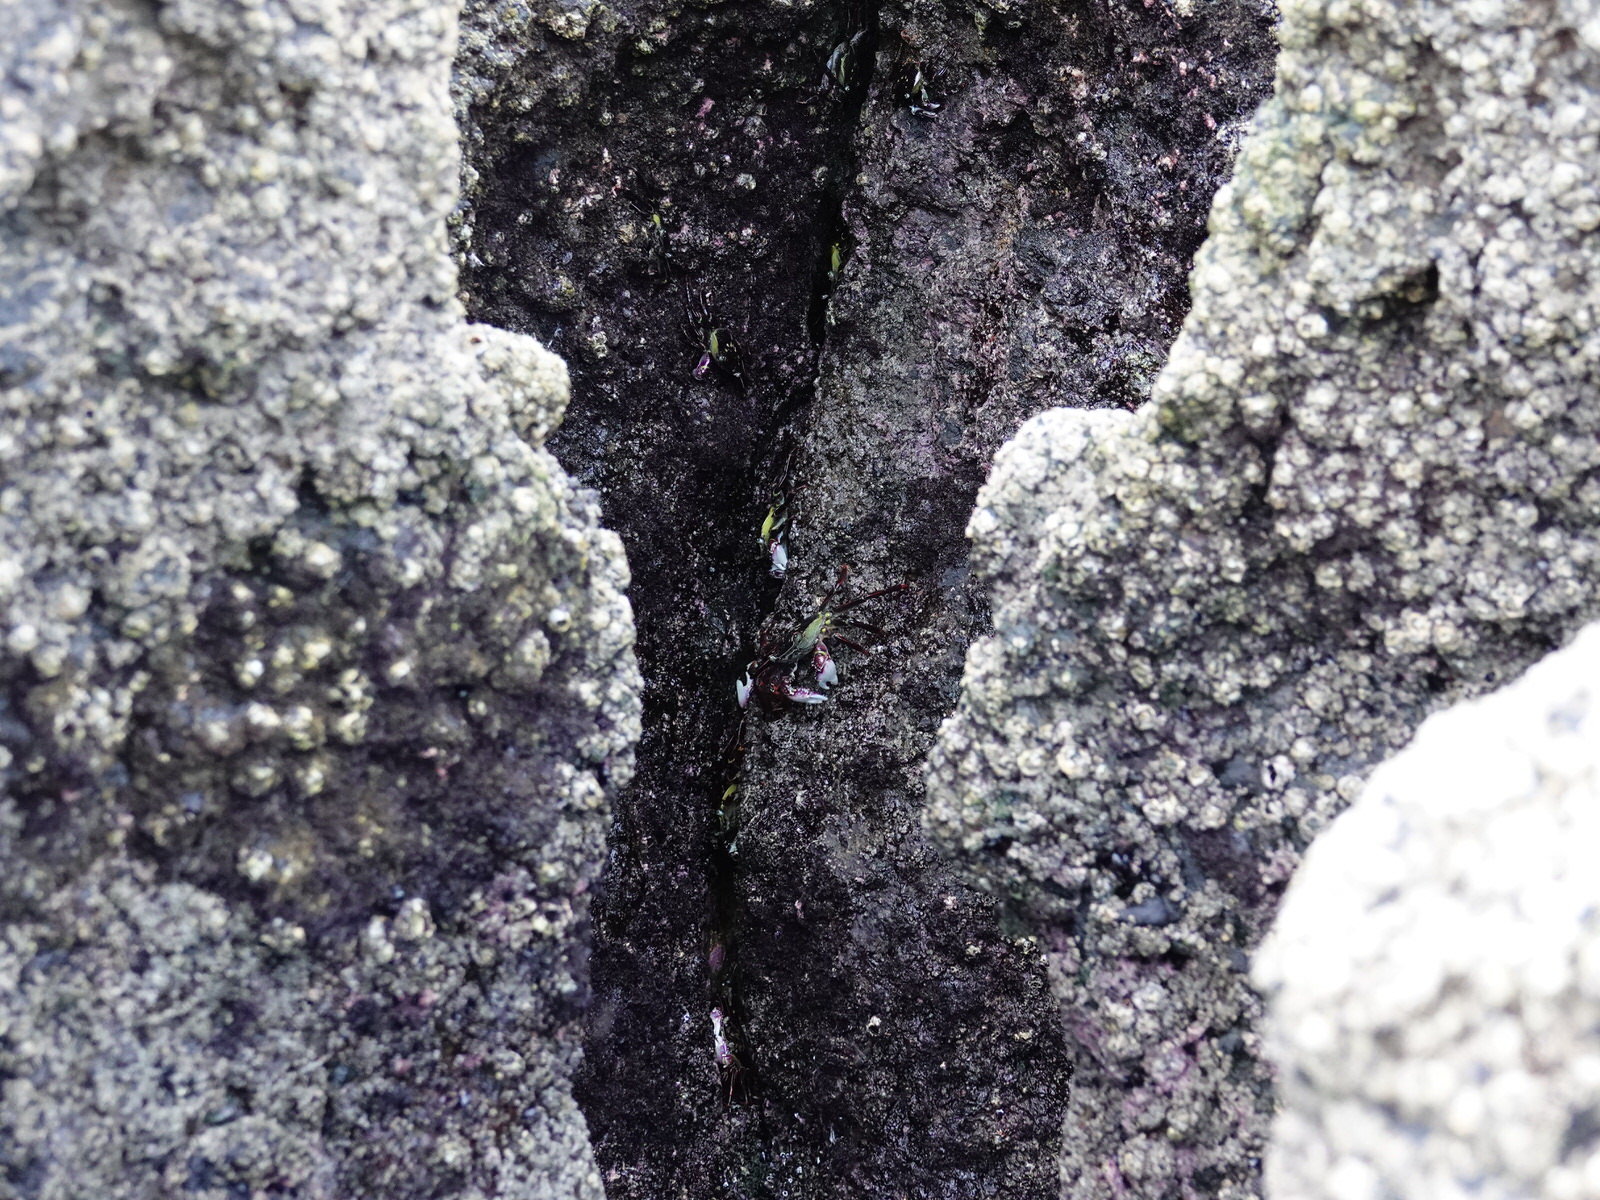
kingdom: Animalia
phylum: Arthropoda
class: Malacostraca
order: Decapoda
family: Grapsidae
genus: Leptograpsus
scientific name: Leptograpsus variegatus
